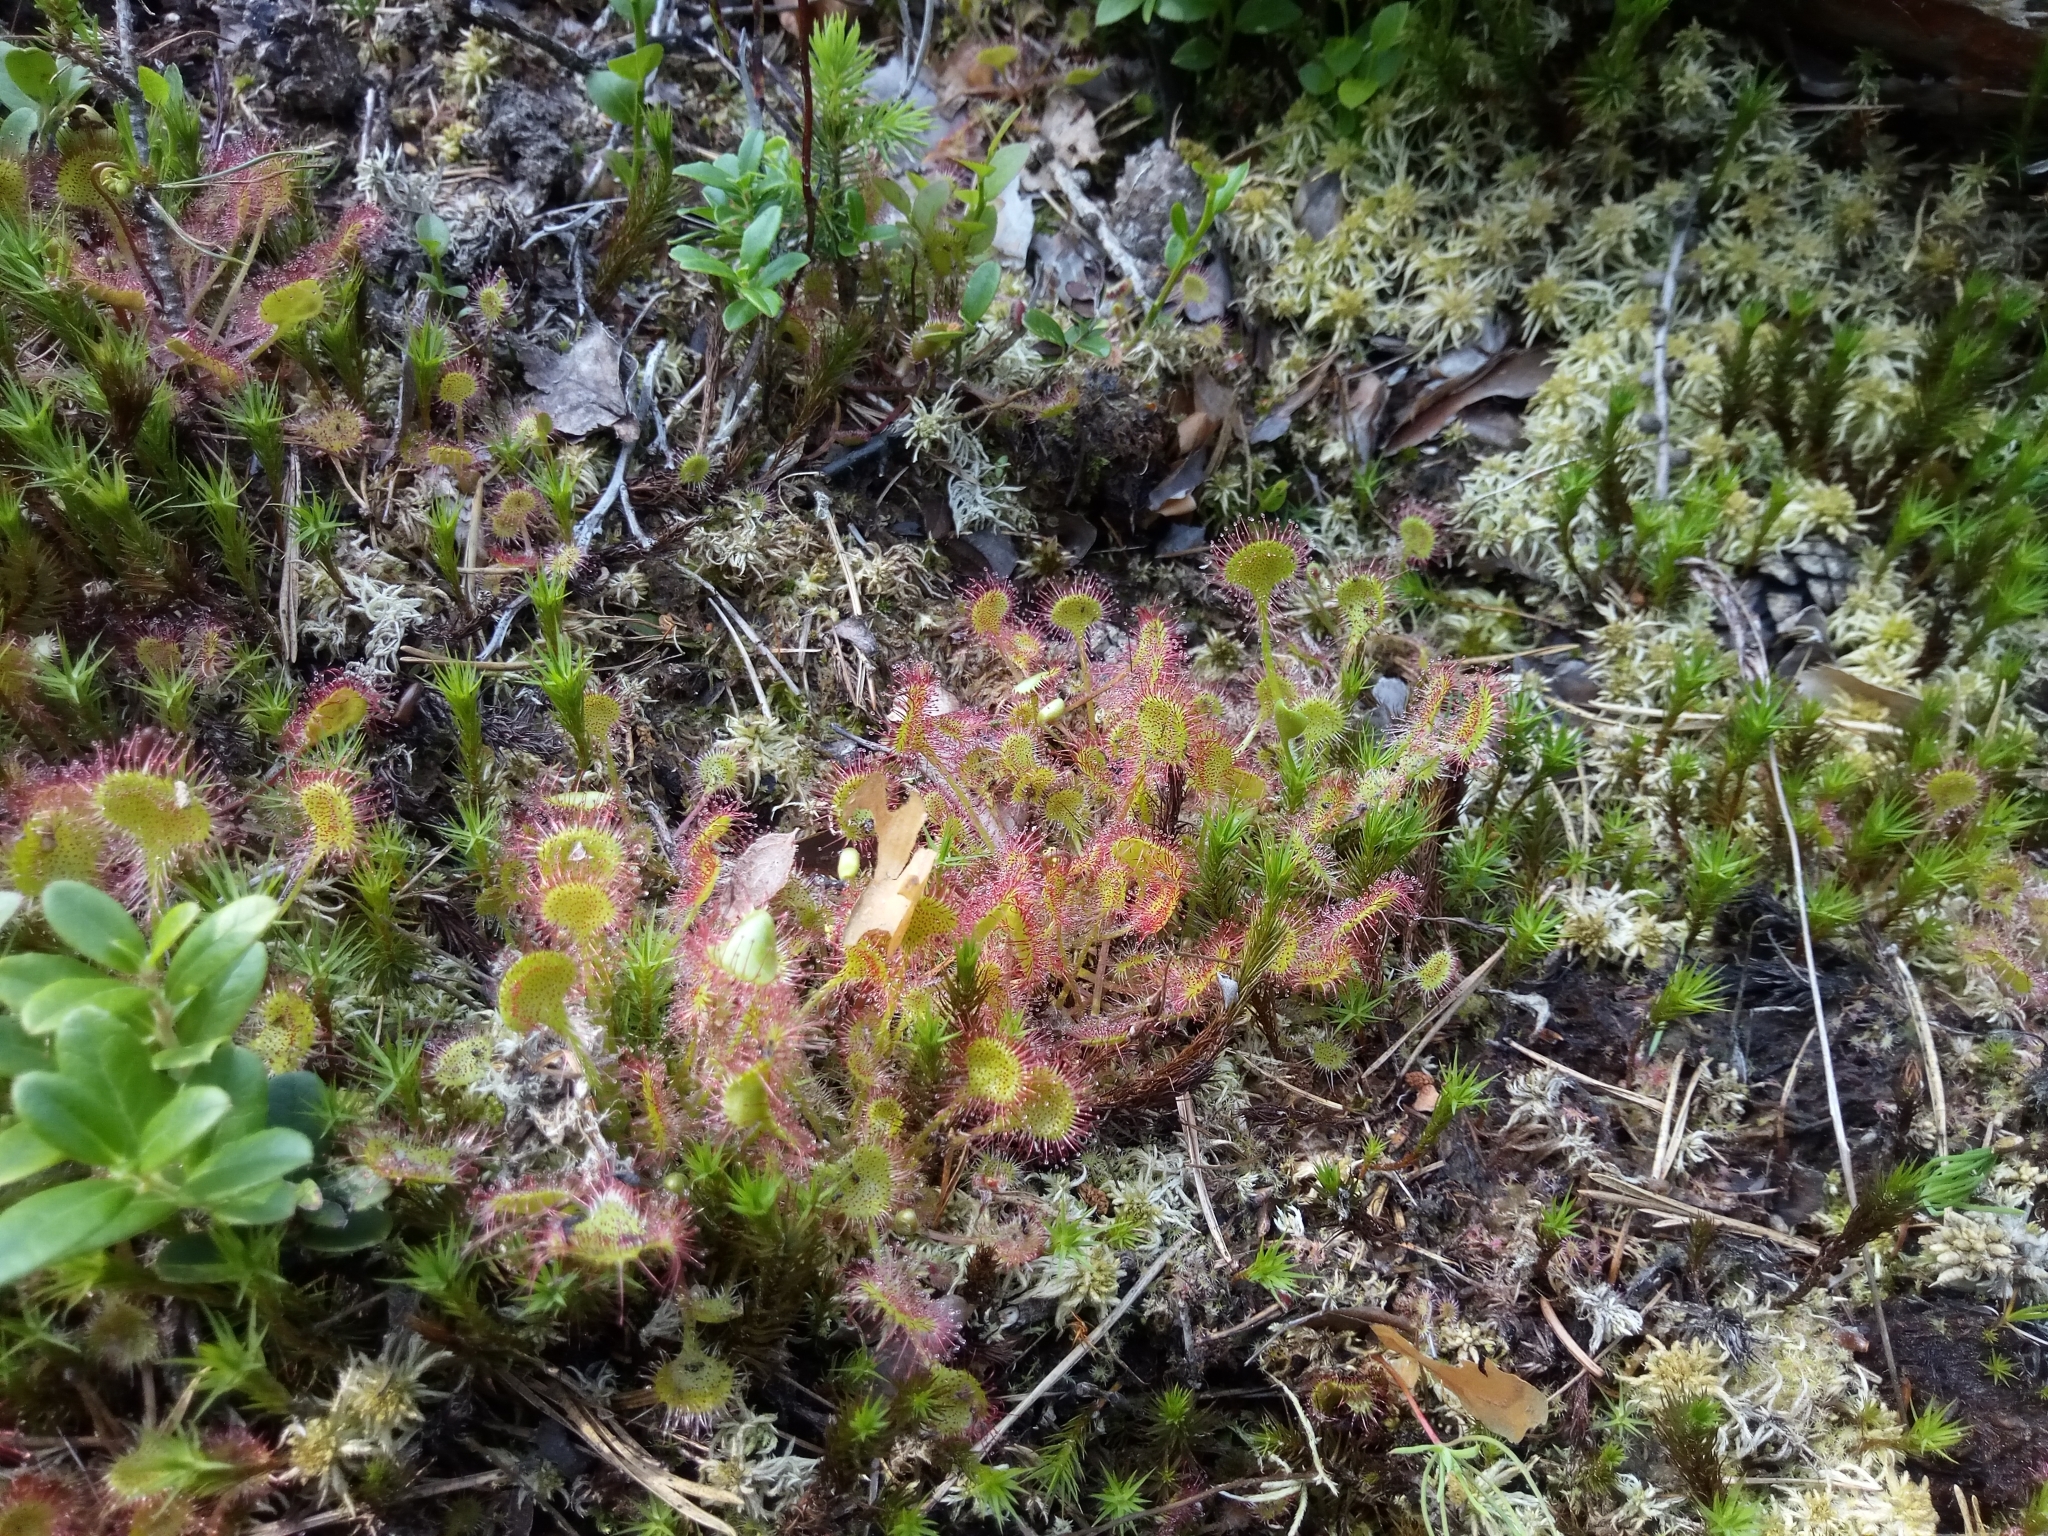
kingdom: Plantae
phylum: Tracheophyta
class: Magnoliopsida
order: Caryophyllales
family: Droseraceae
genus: Drosera
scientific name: Drosera rotundifolia
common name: Round-leaved sundew
